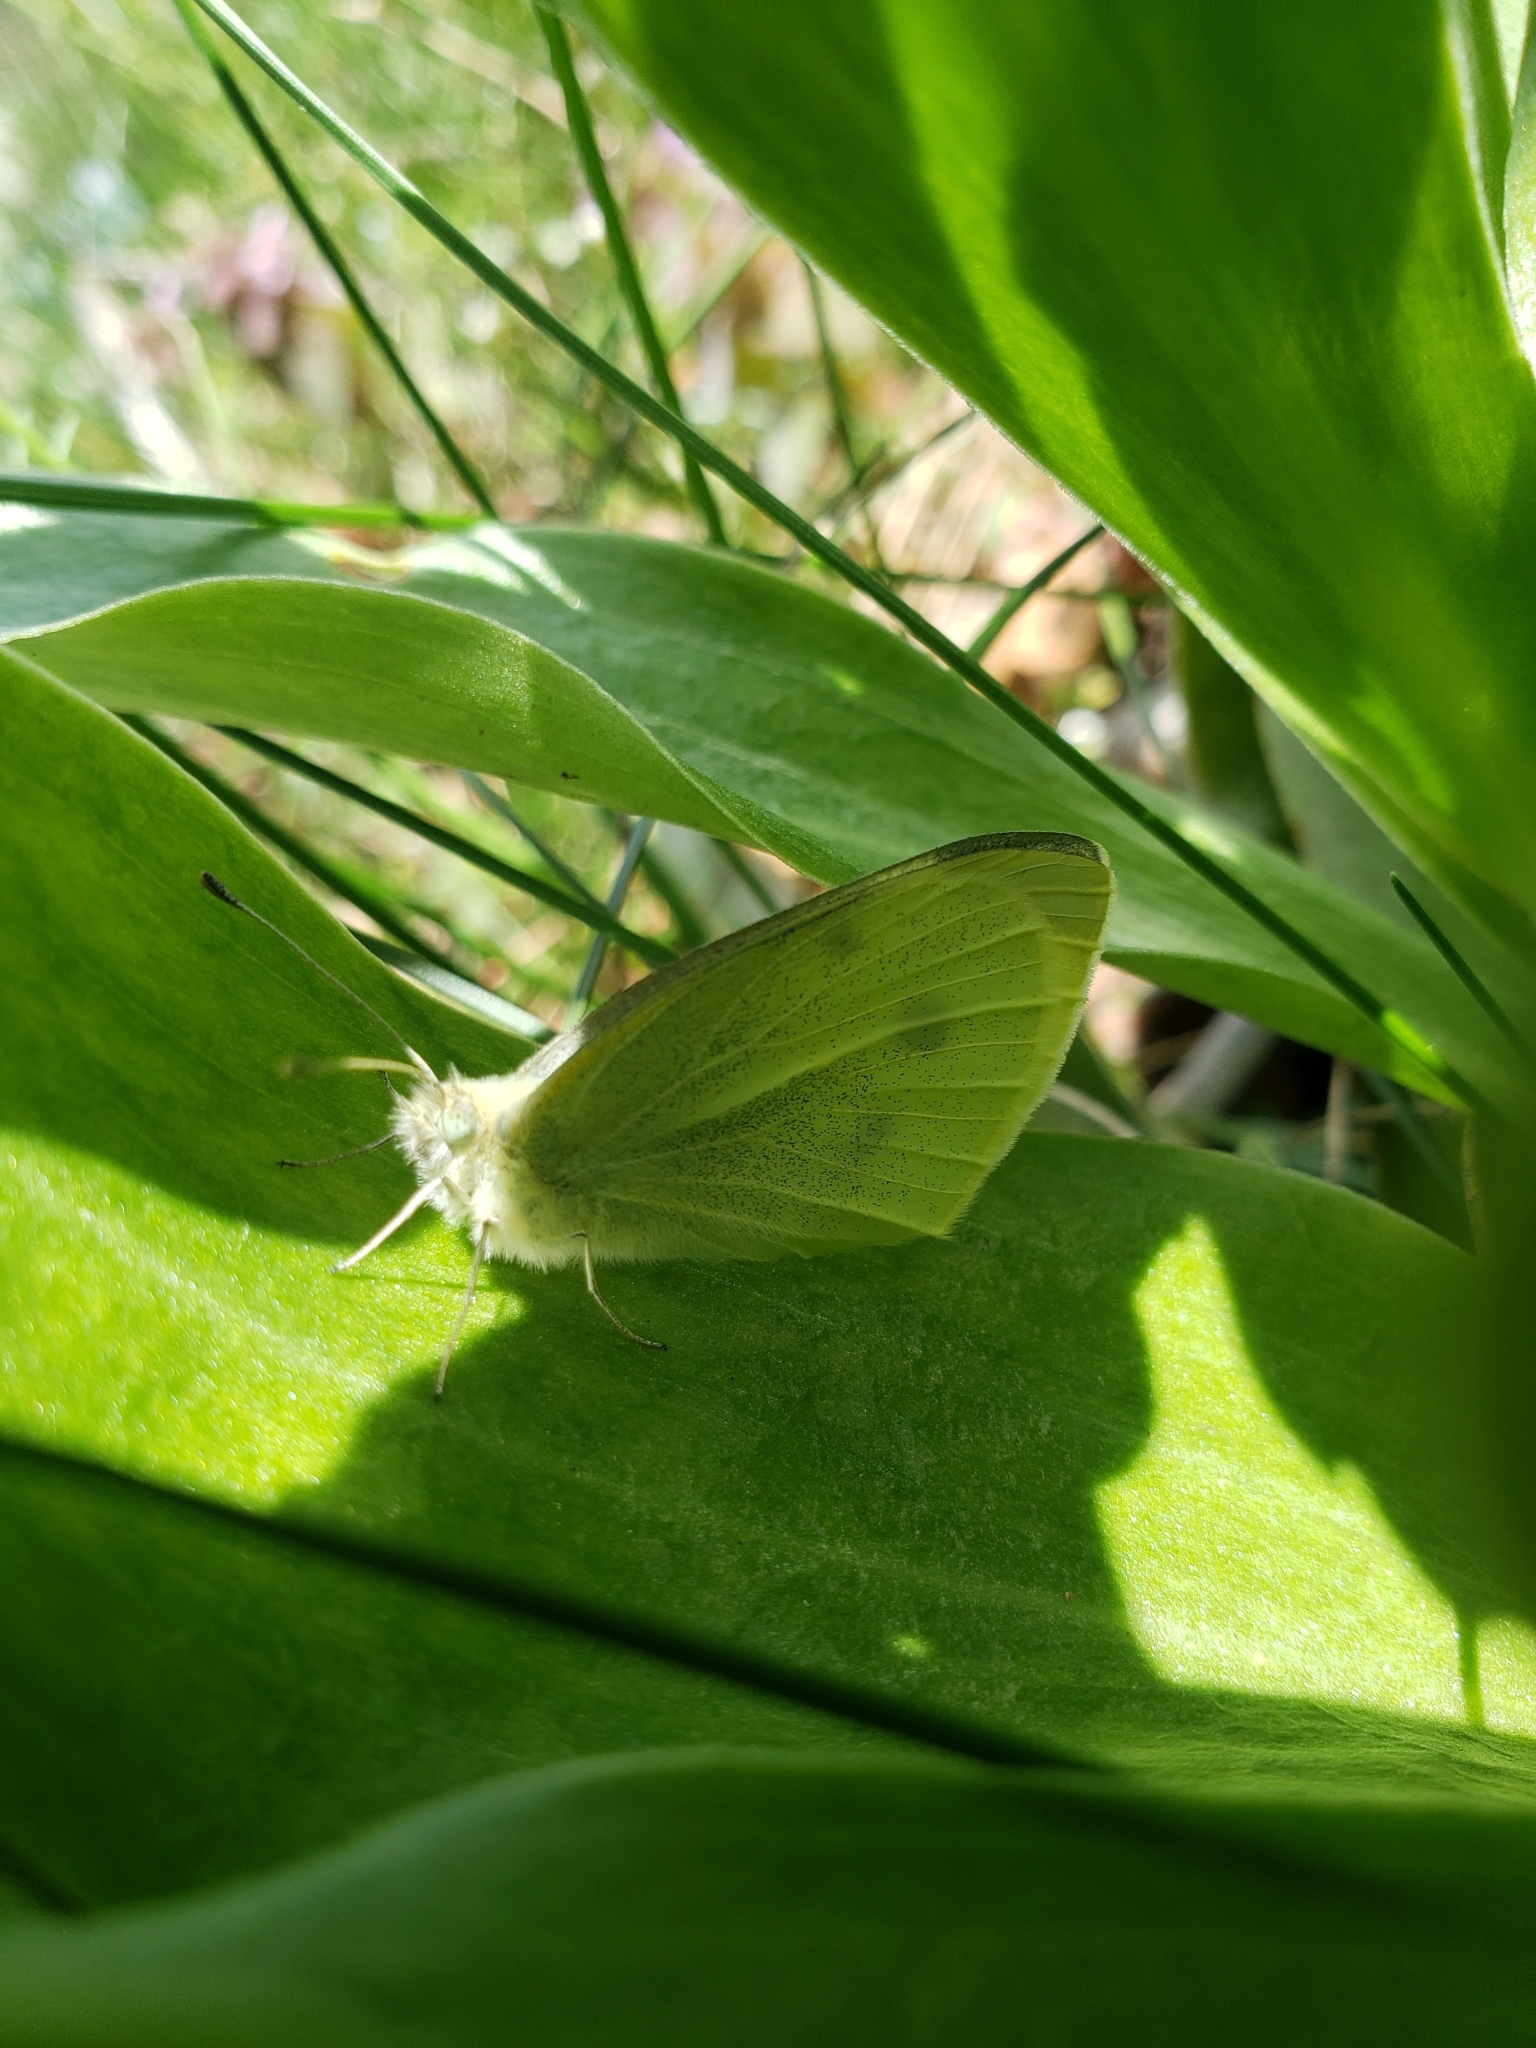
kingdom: Animalia
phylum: Arthropoda
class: Insecta
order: Lepidoptera
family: Pieridae
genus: Pieris
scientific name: Pieris rapae
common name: Small white
